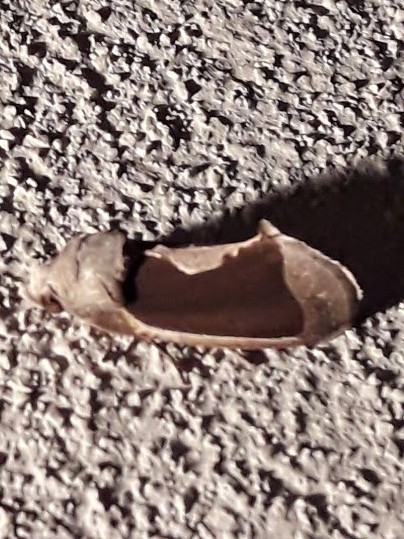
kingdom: Animalia
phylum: Arthropoda
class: Insecta
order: Lepidoptera
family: Erebidae
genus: Gonodonta
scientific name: Gonodonta sinaldus
